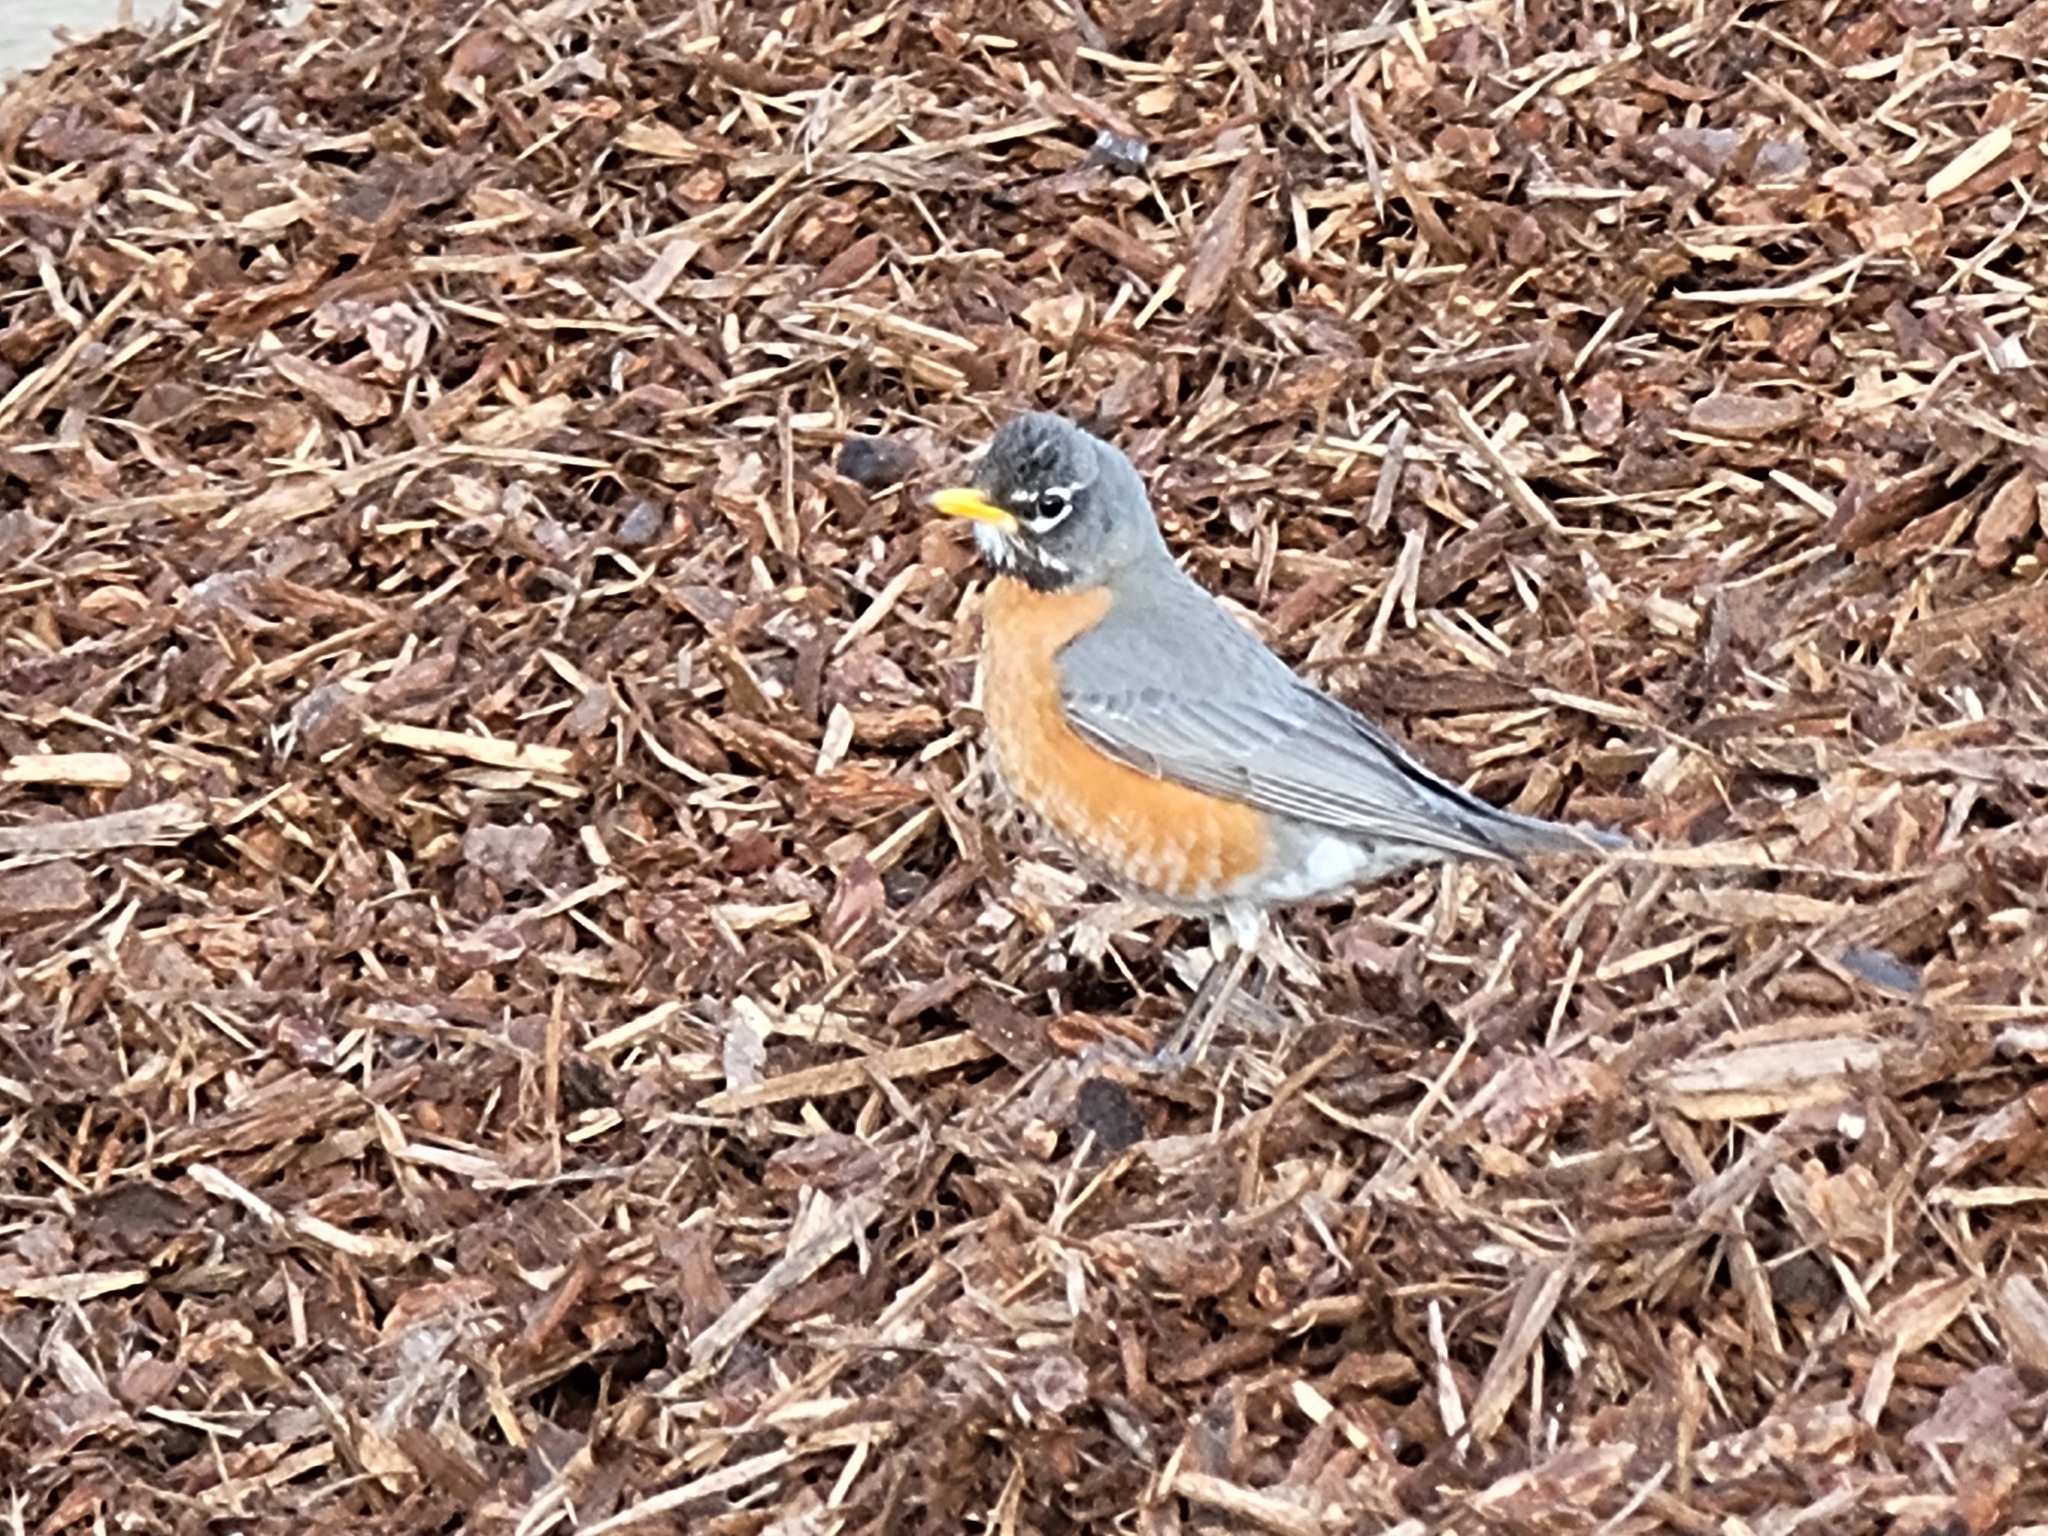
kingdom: Animalia
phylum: Chordata
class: Aves
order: Passeriformes
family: Turdidae
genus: Turdus
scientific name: Turdus migratorius
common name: American robin
